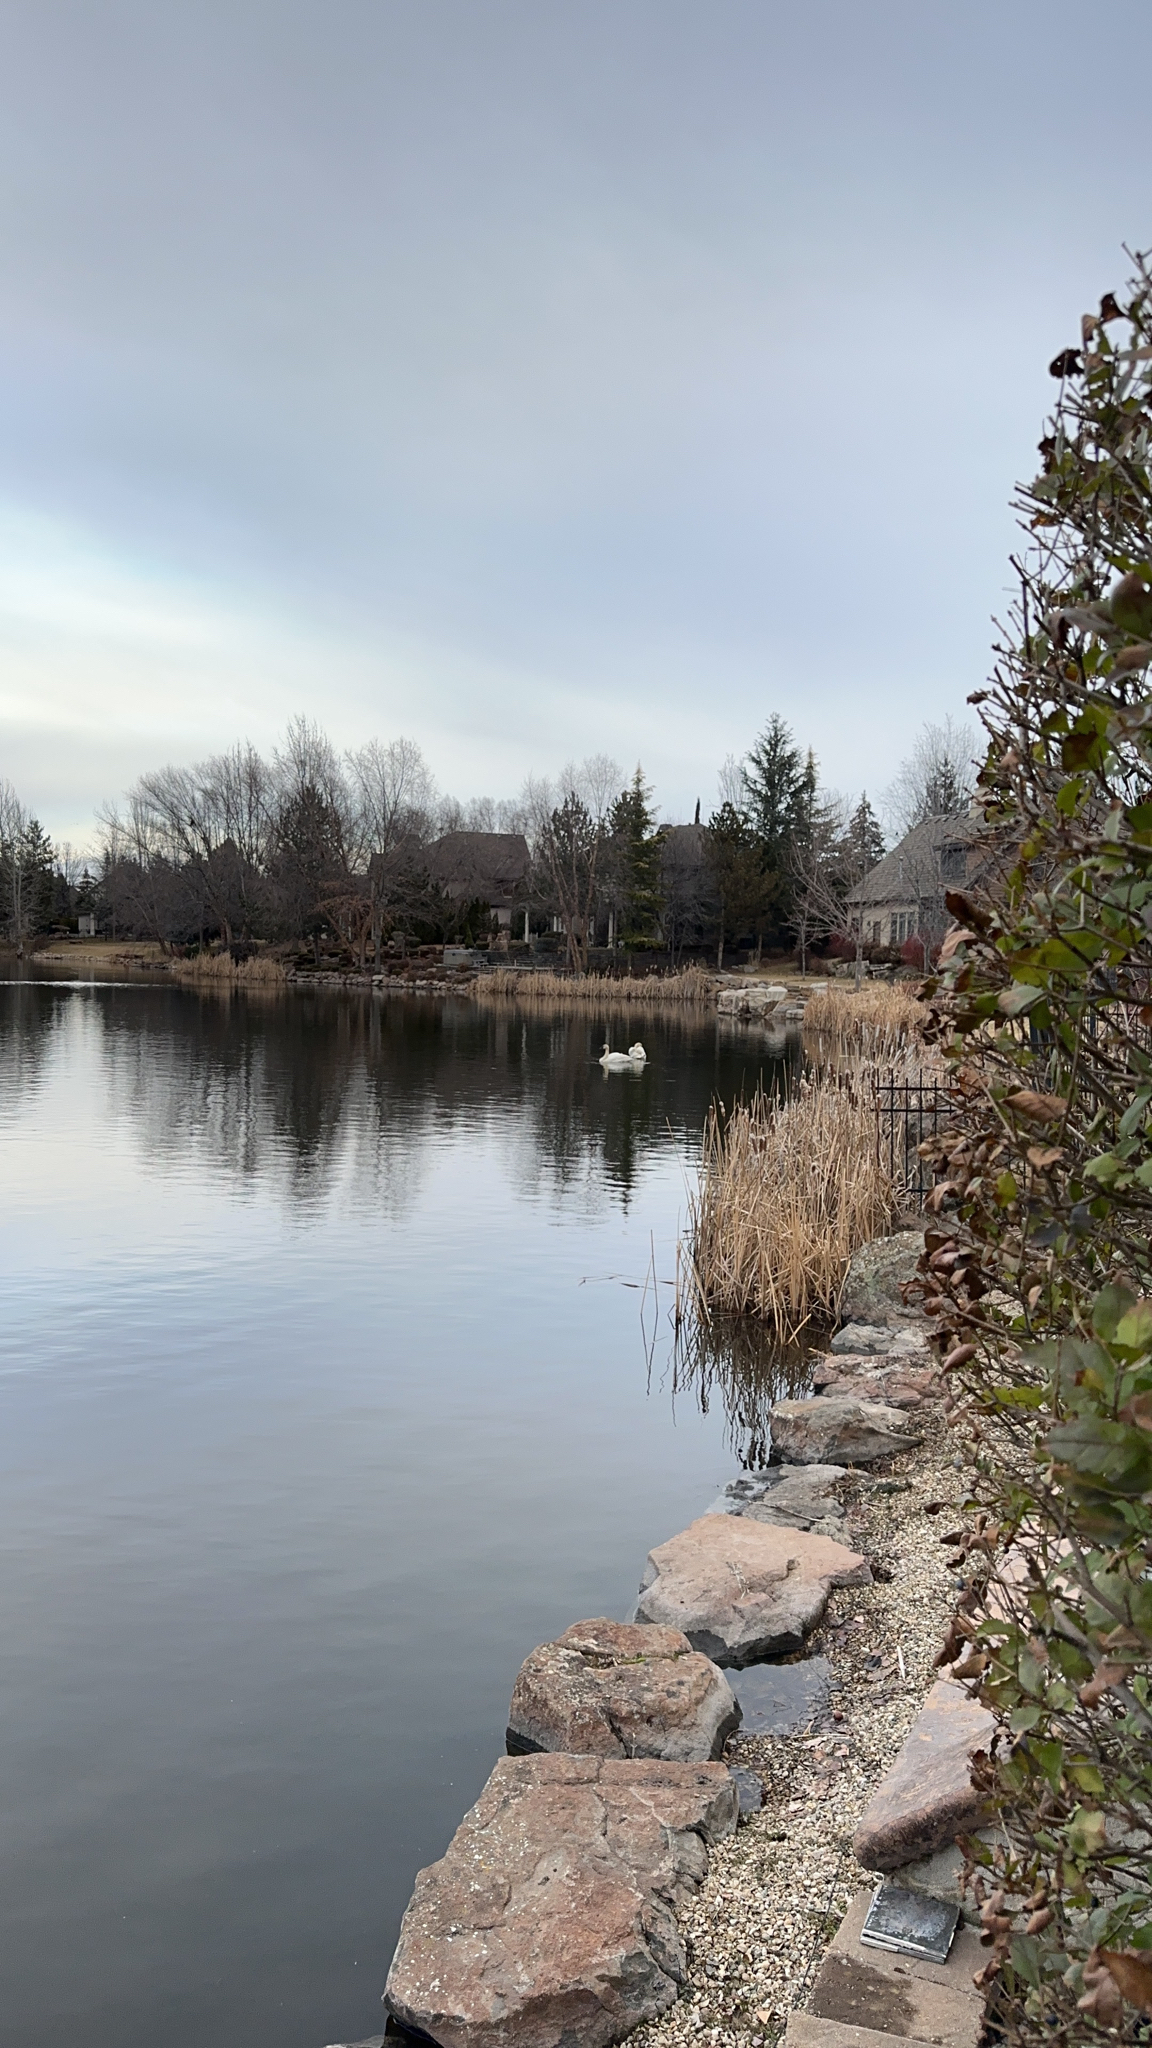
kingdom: Animalia
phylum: Chordata
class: Aves
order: Anseriformes
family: Anatidae
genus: Cygnus
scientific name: Cygnus olor
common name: Mute swan
